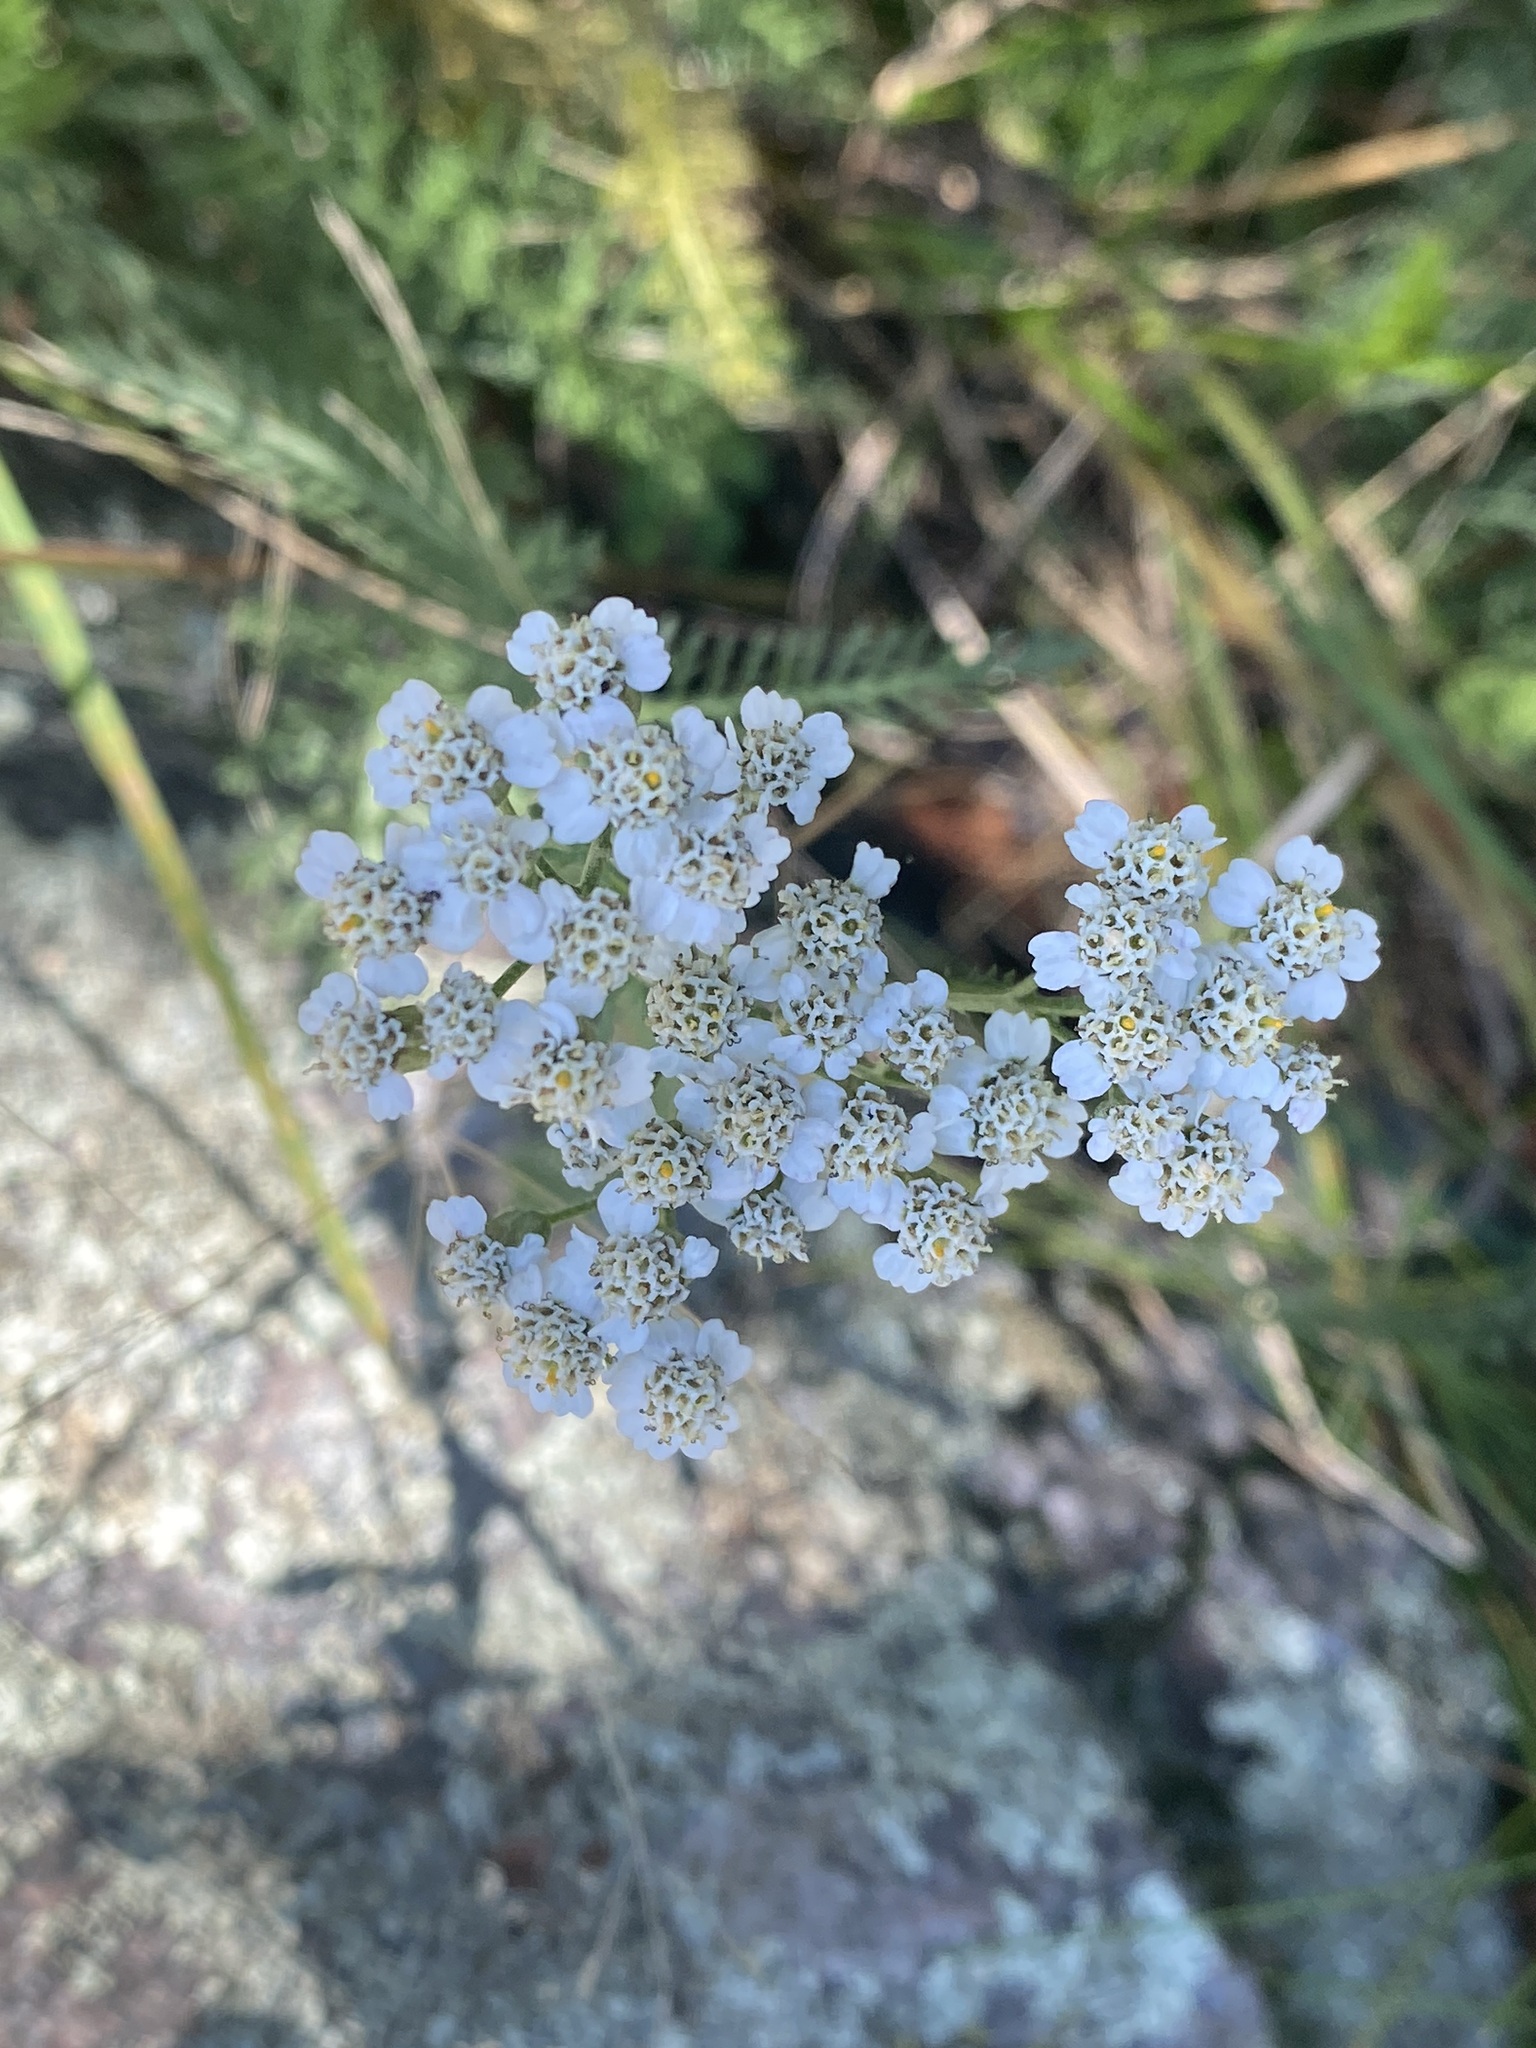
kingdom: Plantae
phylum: Tracheophyta
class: Magnoliopsida
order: Asterales
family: Asteraceae
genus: Achillea
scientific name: Achillea millefolium
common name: Yarrow
